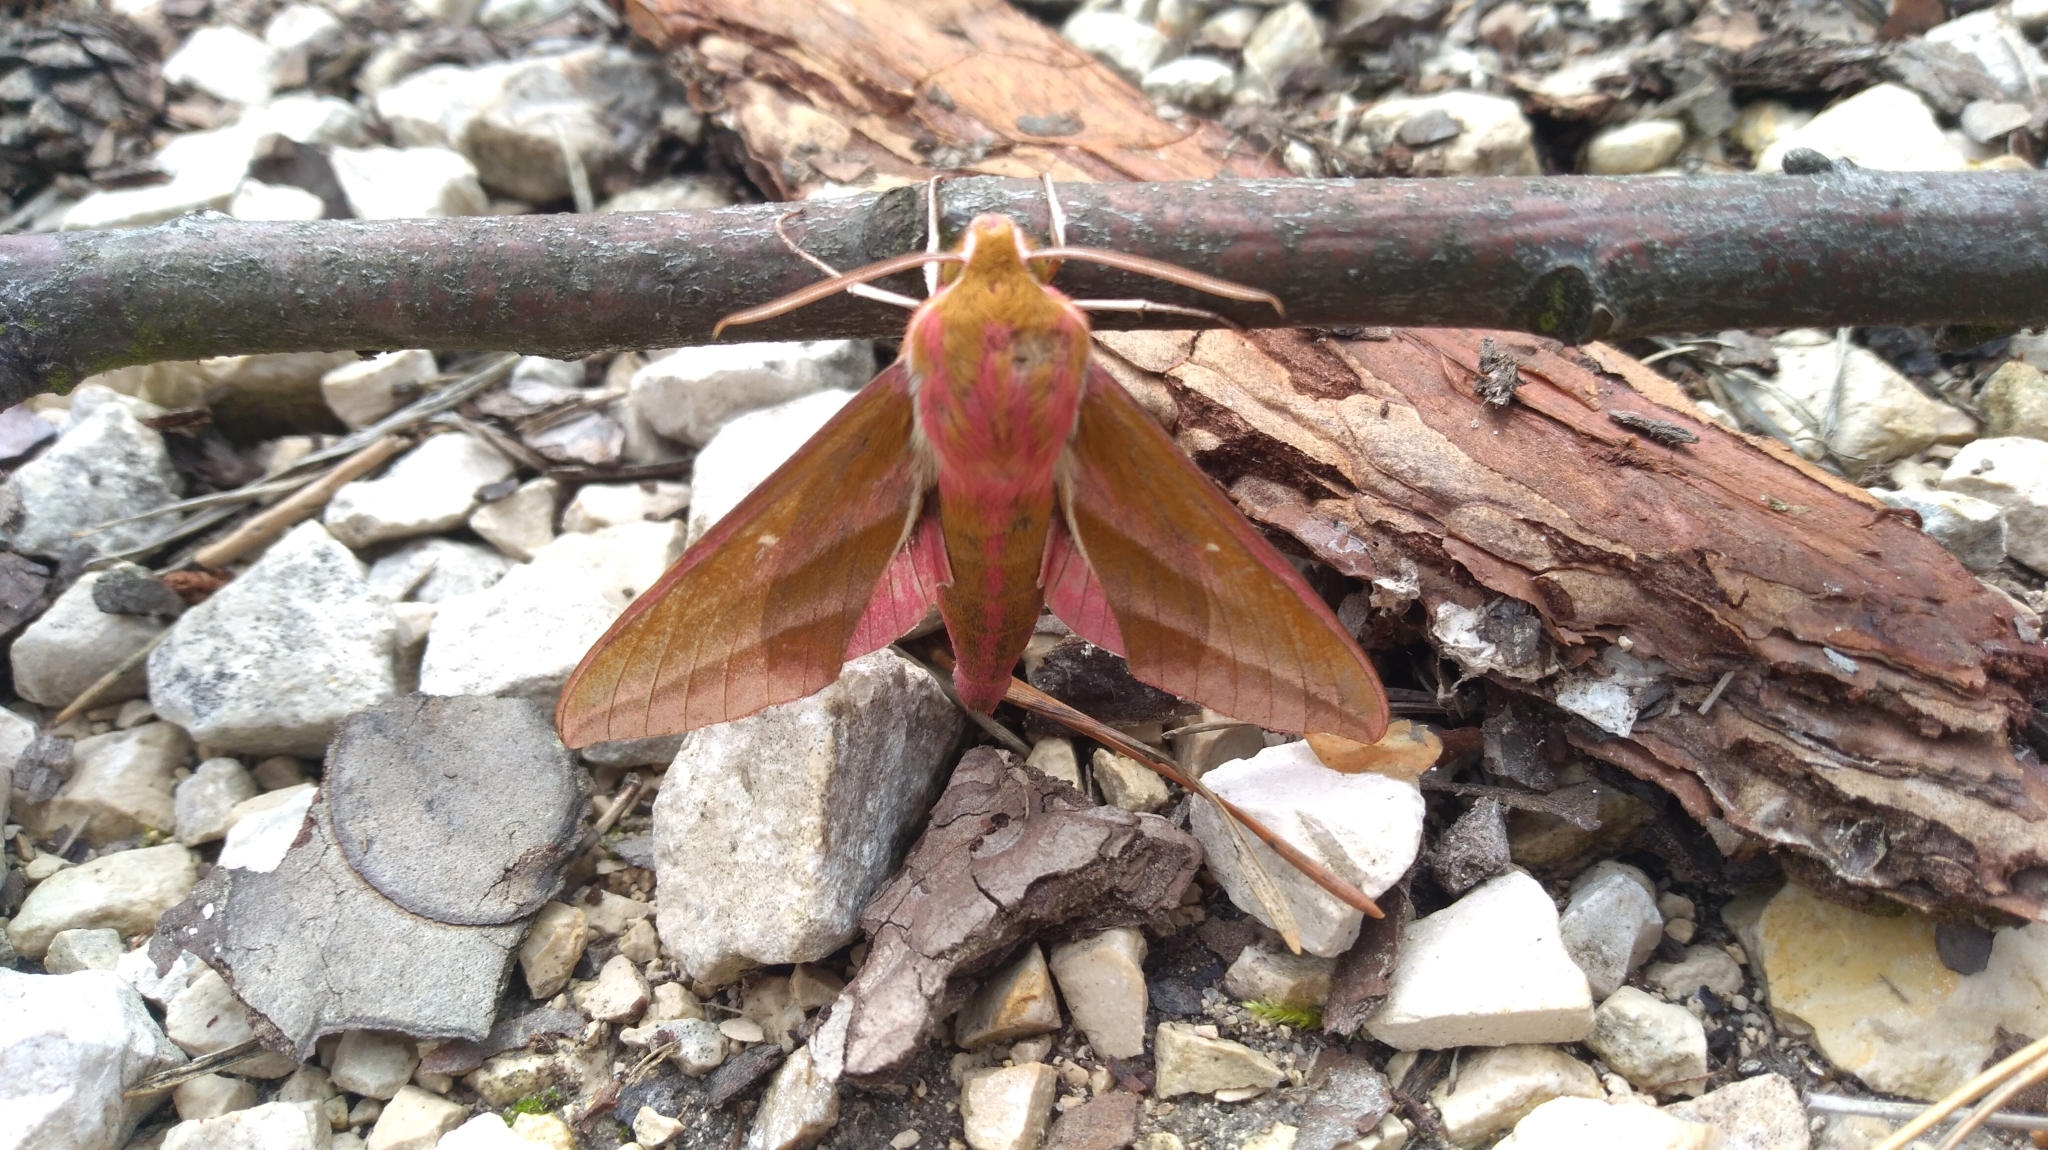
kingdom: Animalia
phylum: Arthropoda
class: Insecta
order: Lepidoptera
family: Sphingidae
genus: Deilephila
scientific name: Deilephila elpenor
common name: Elephant hawk-moth
